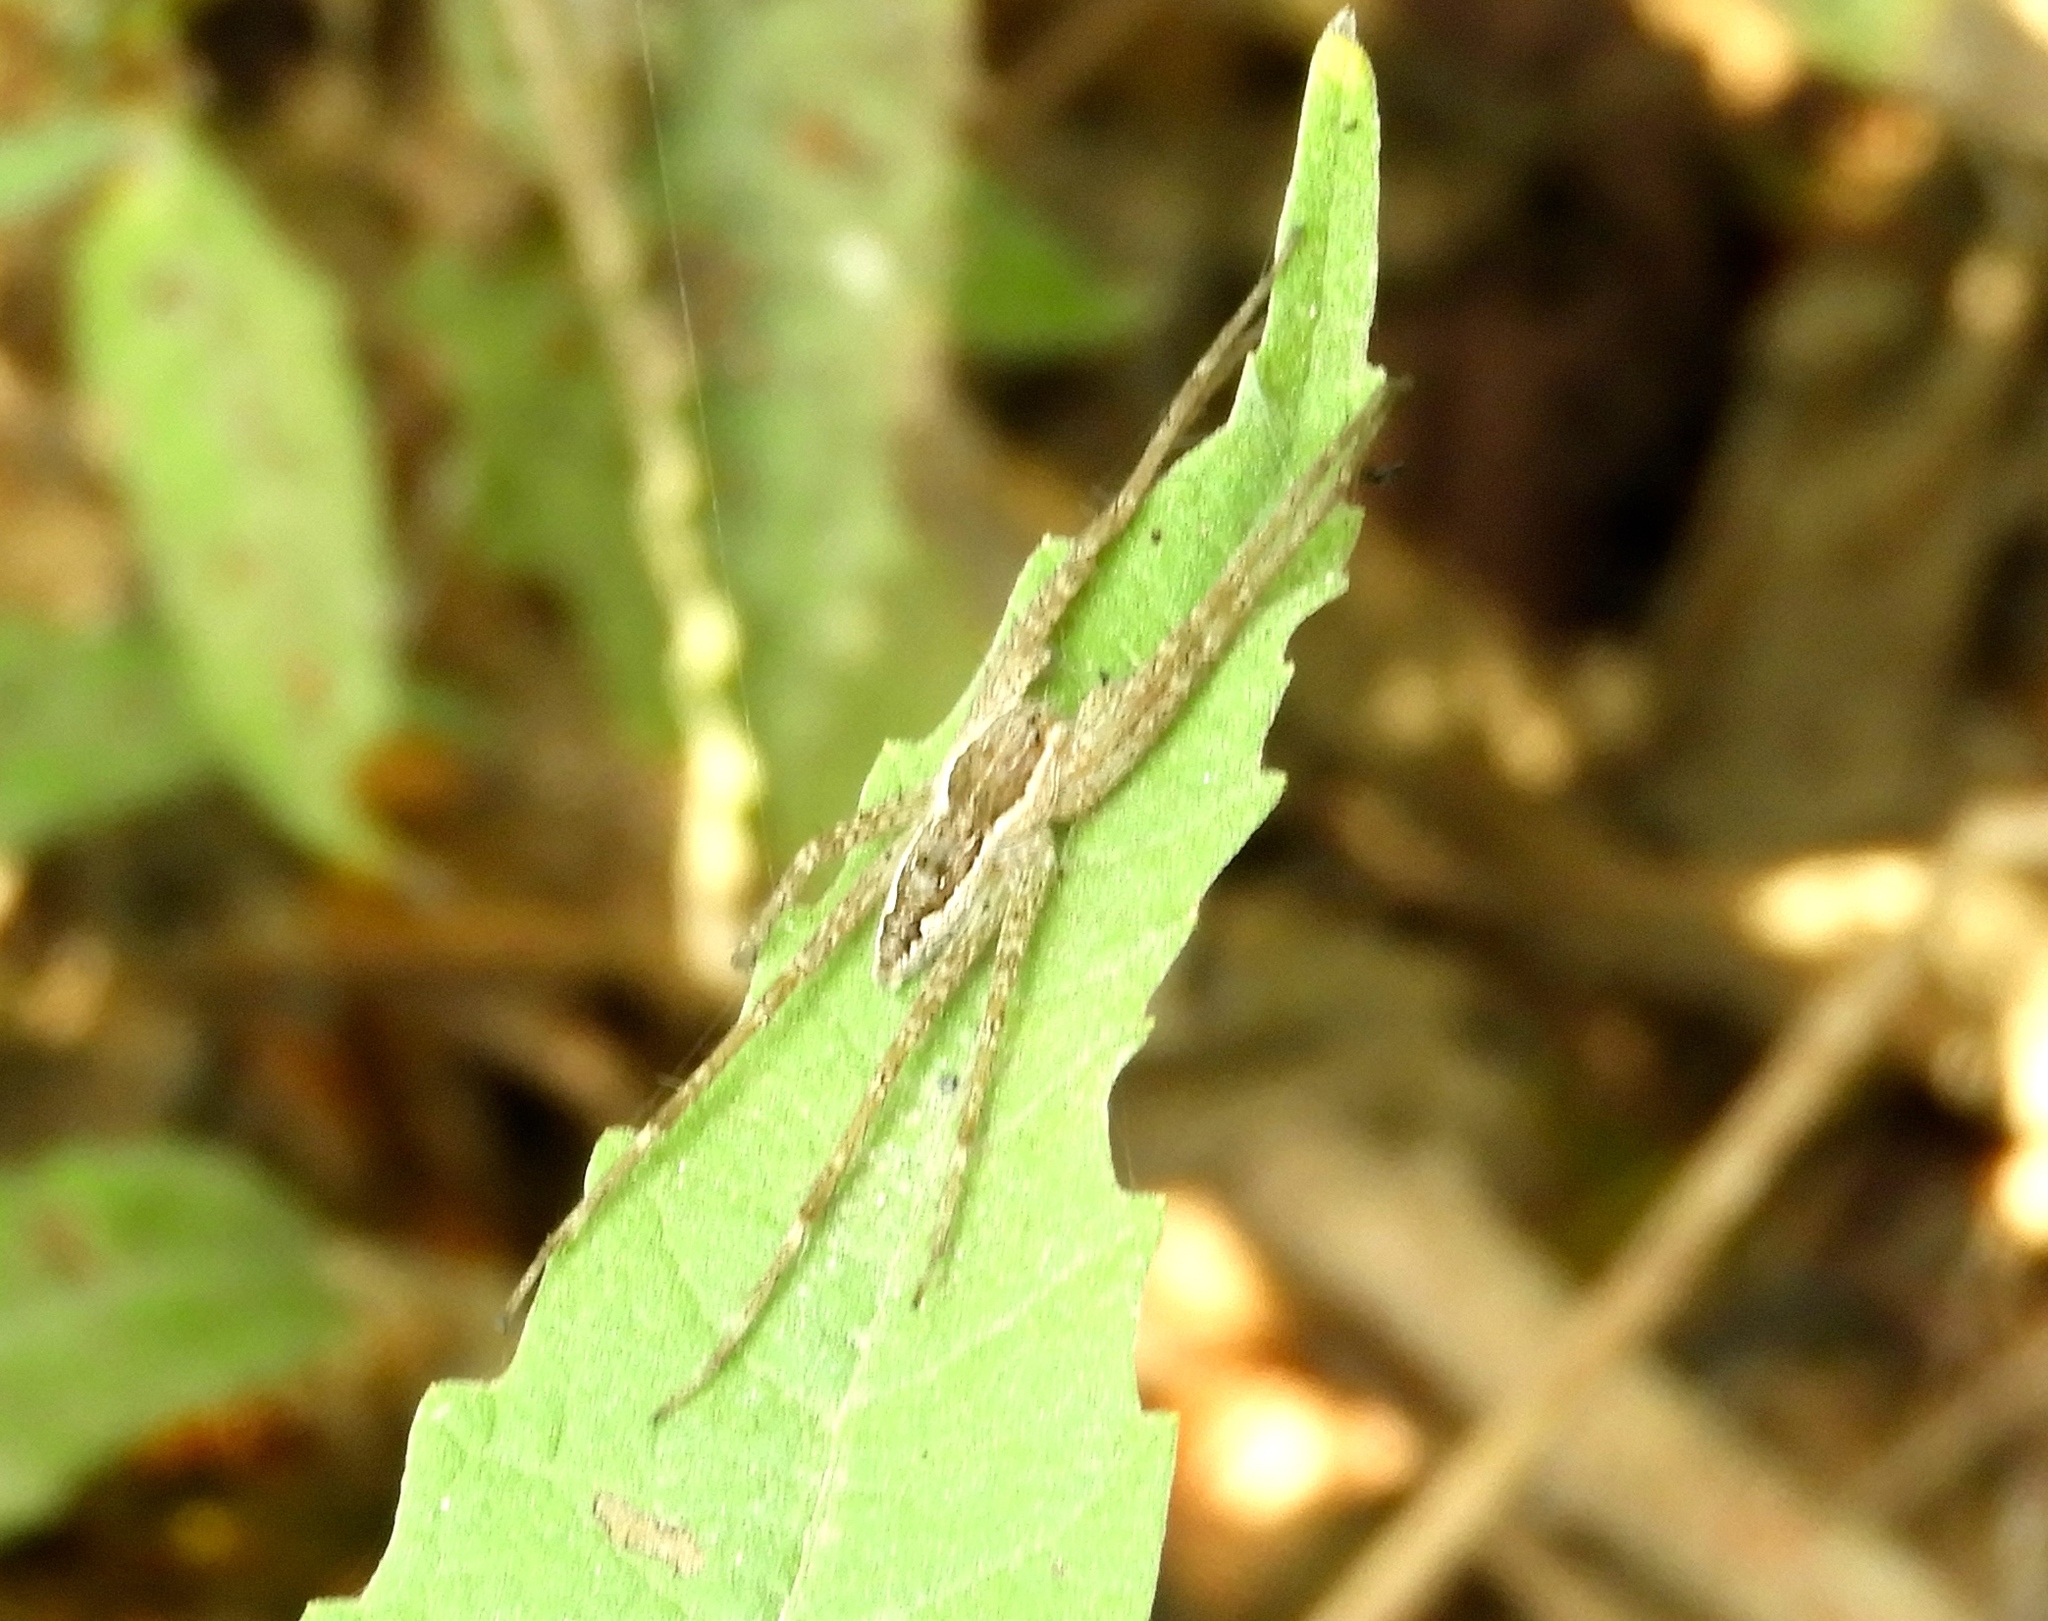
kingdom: Animalia
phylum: Arthropoda
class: Arachnida
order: Araneae
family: Pisauridae
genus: Tinus
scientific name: Tinus
